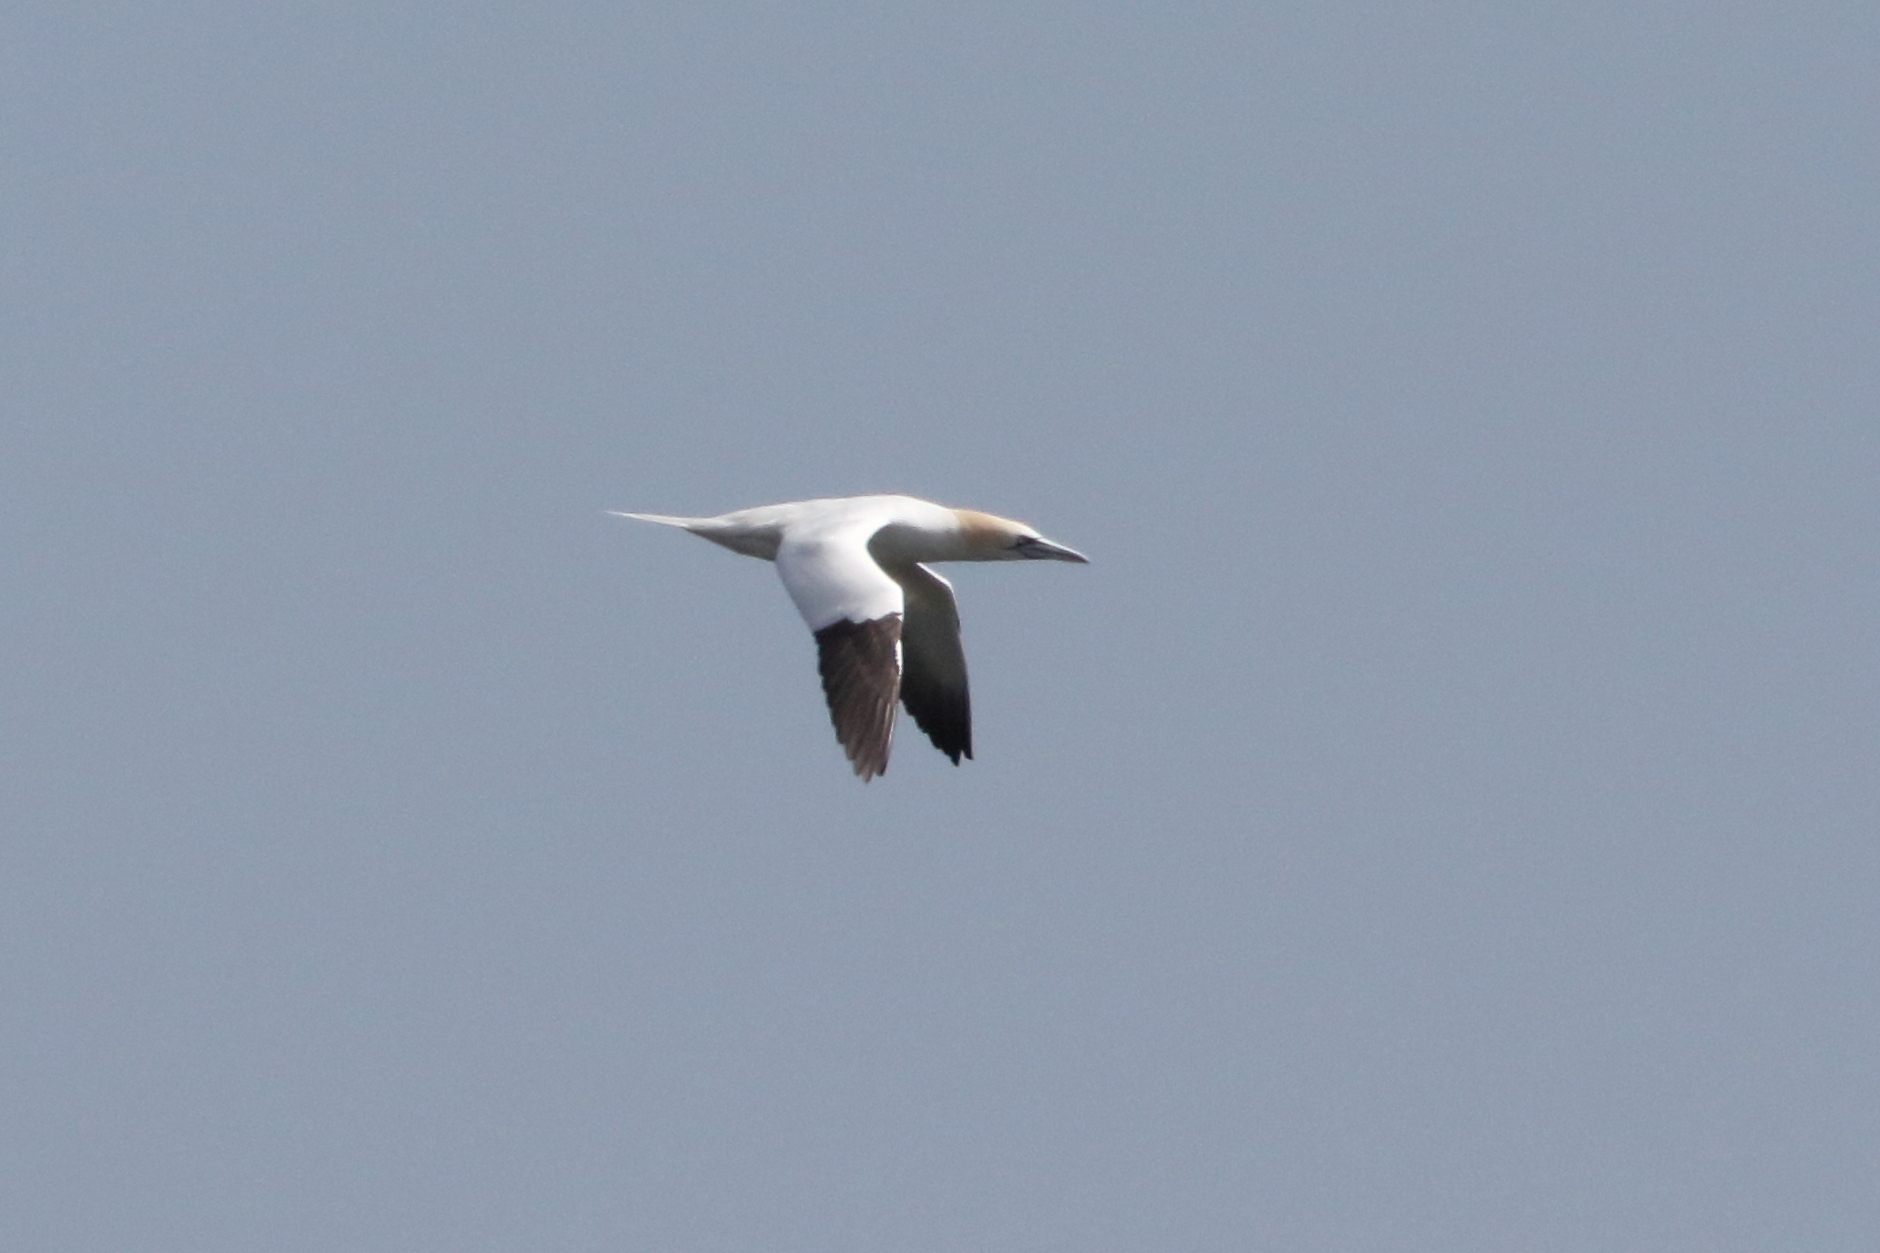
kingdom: Animalia
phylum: Chordata
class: Aves
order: Suliformes
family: Sulidae
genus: Morus
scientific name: Morus bassanus
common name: Northern gannet
